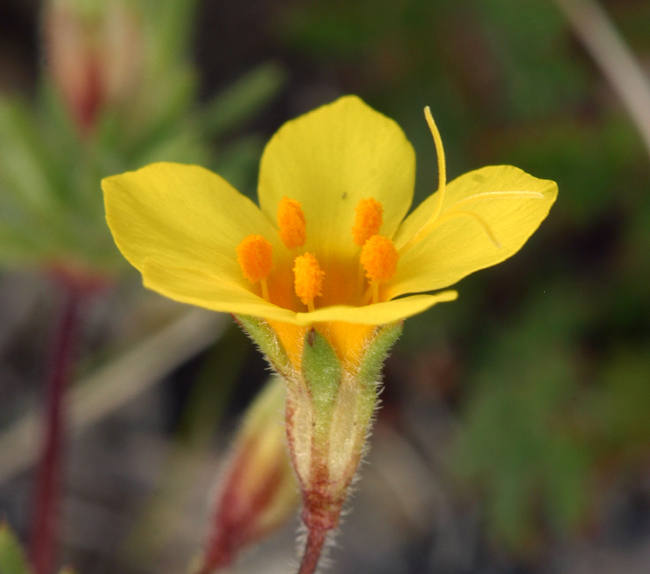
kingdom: Plantae
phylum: Tracheophyta
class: Magnoliopsida
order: Ericales
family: Polemoniaceae
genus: Leptosiphon
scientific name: Leptosiphon chrysanthus
